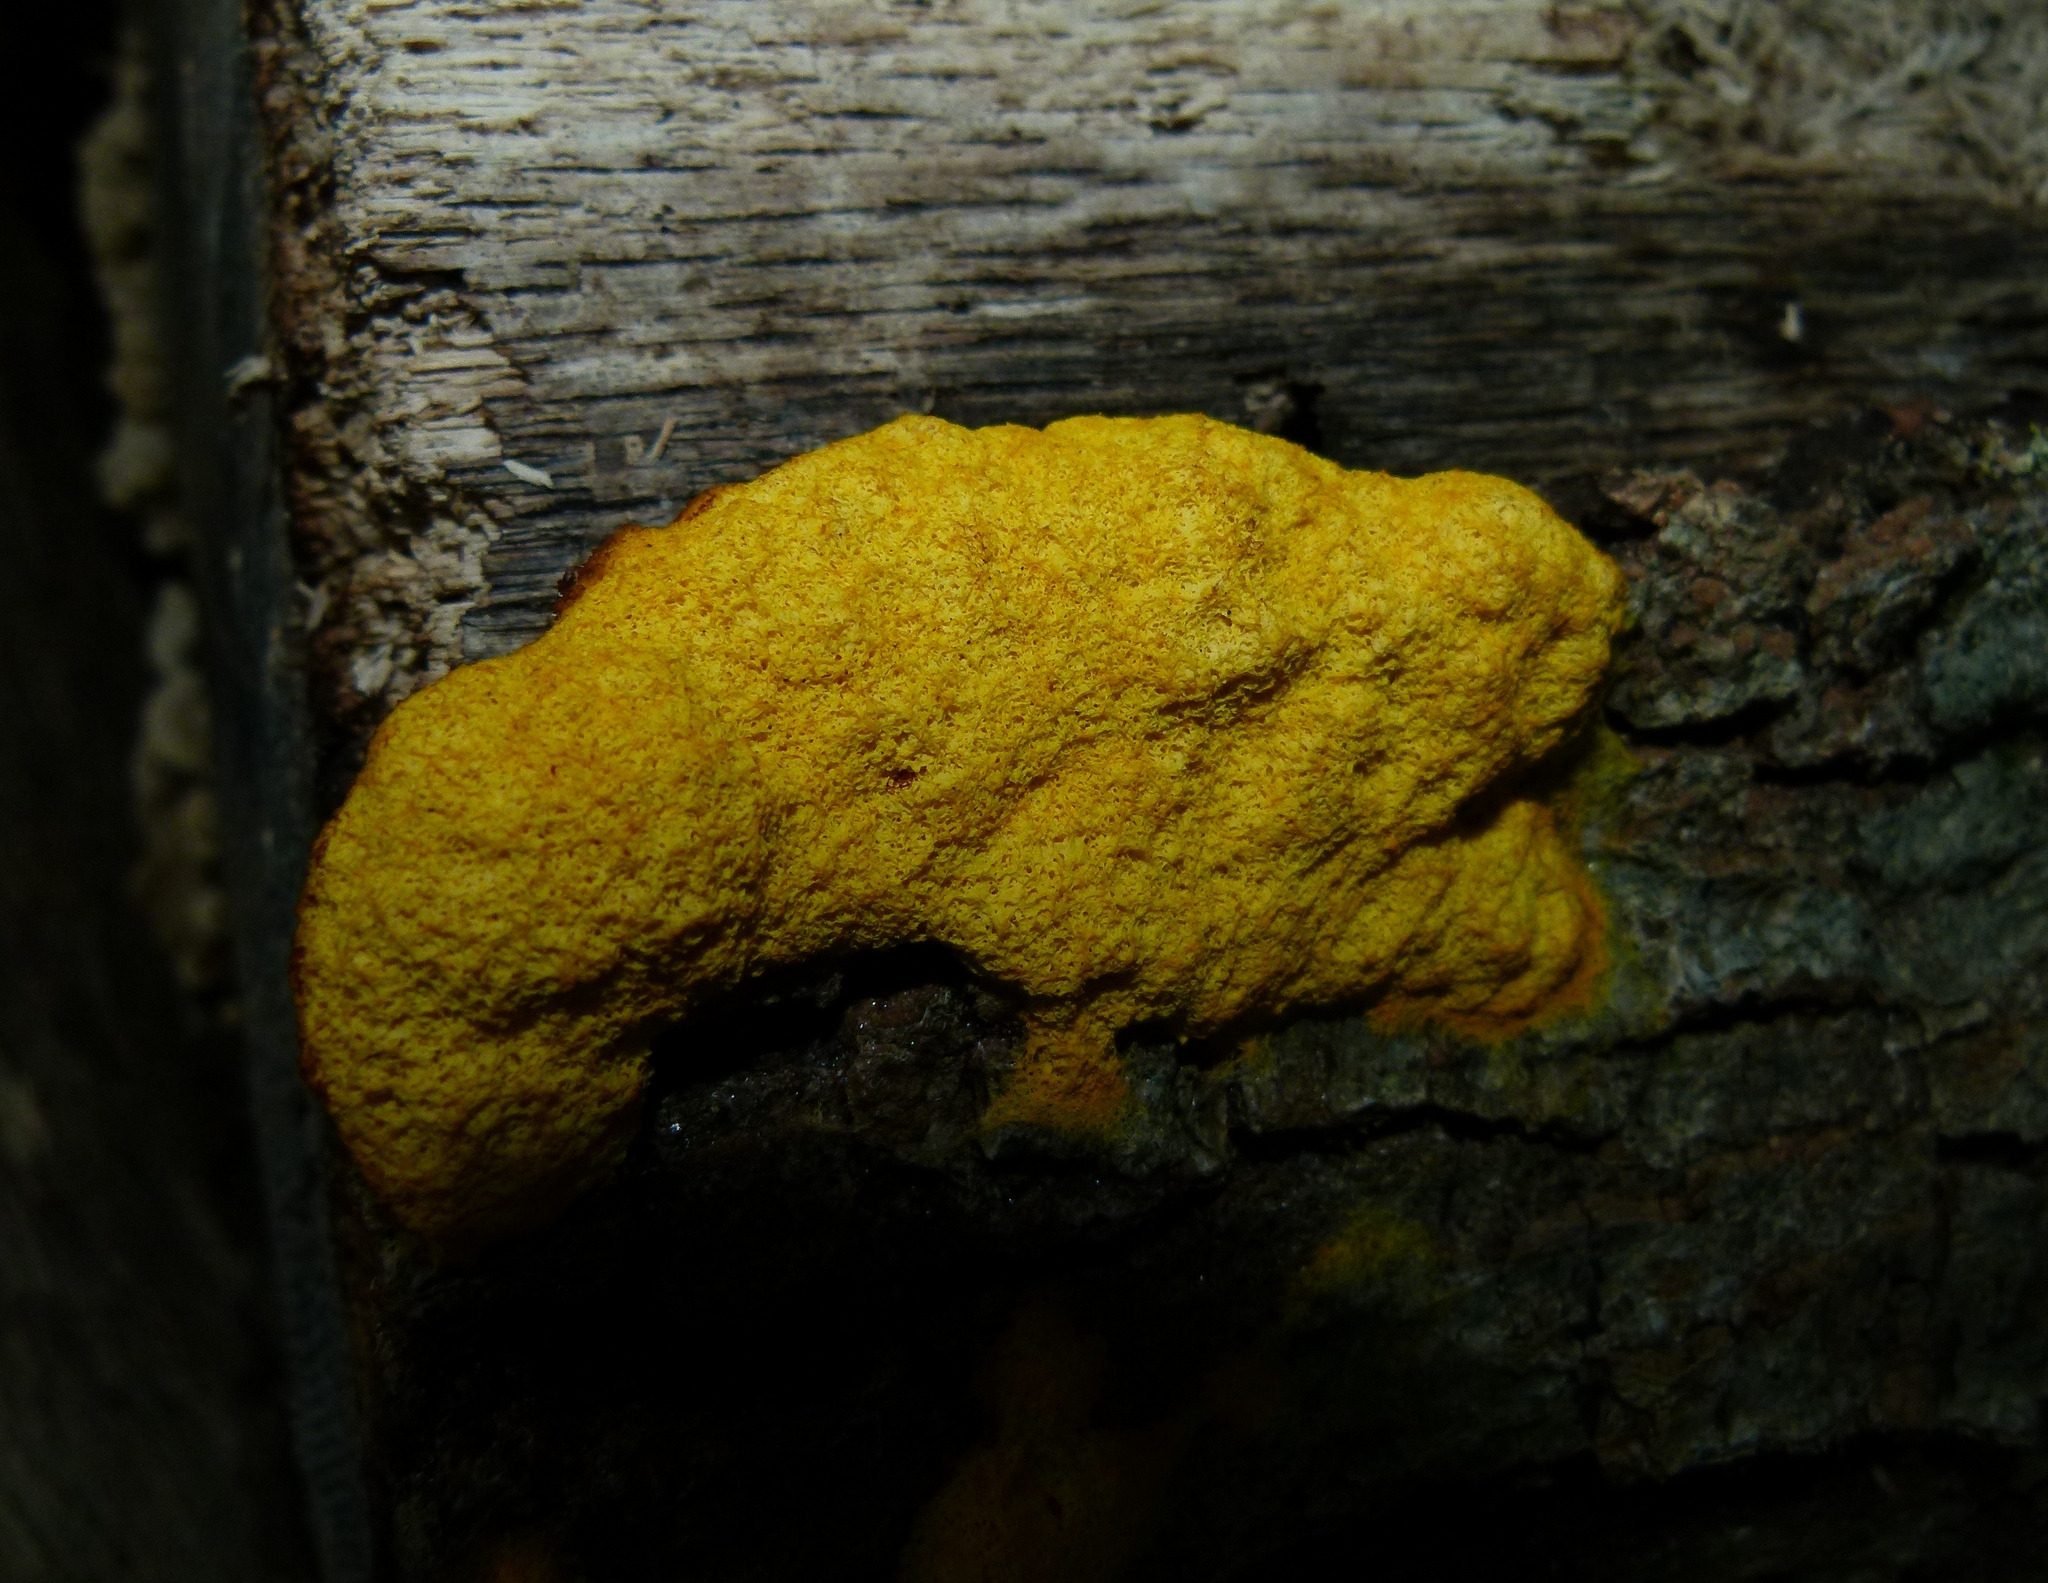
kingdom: Protozoa
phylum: Mycetozoa
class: Myxomycetes
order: Physarales
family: Physaraceae
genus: Fuligo
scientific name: Fuligo septica
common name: Dog vomit slime mold
